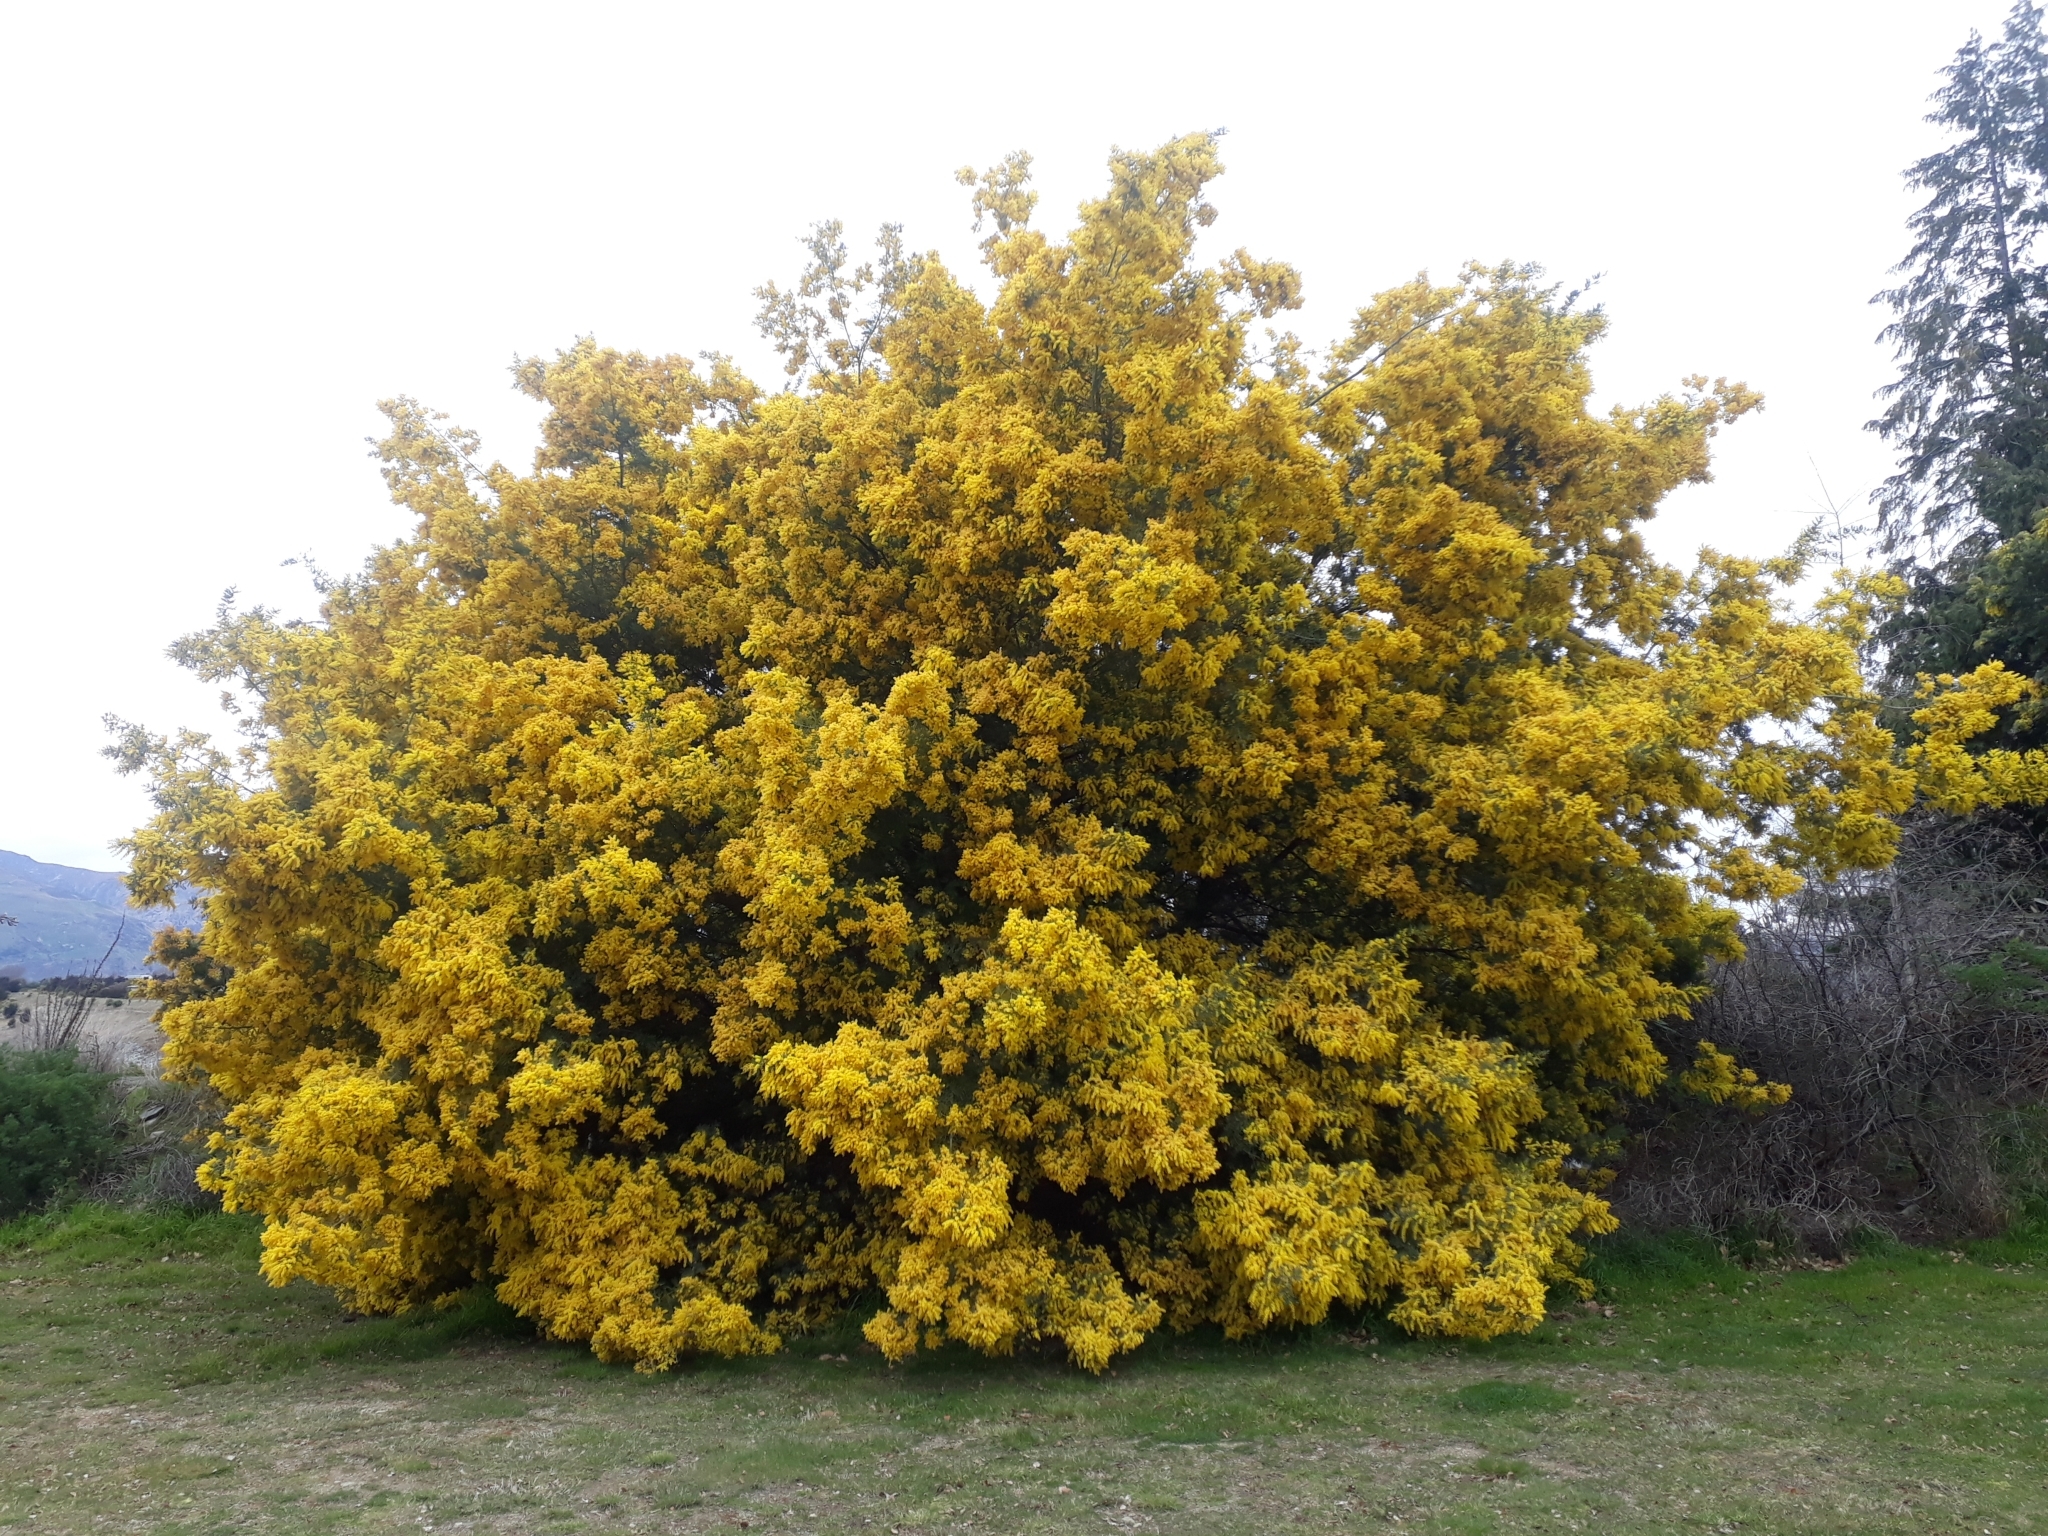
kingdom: Plantae
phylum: Tracheophyta
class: Magnoliopsida
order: Fabales
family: Fabaceae
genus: Acacia
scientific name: Acacia dealbata
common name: Silver wattle
